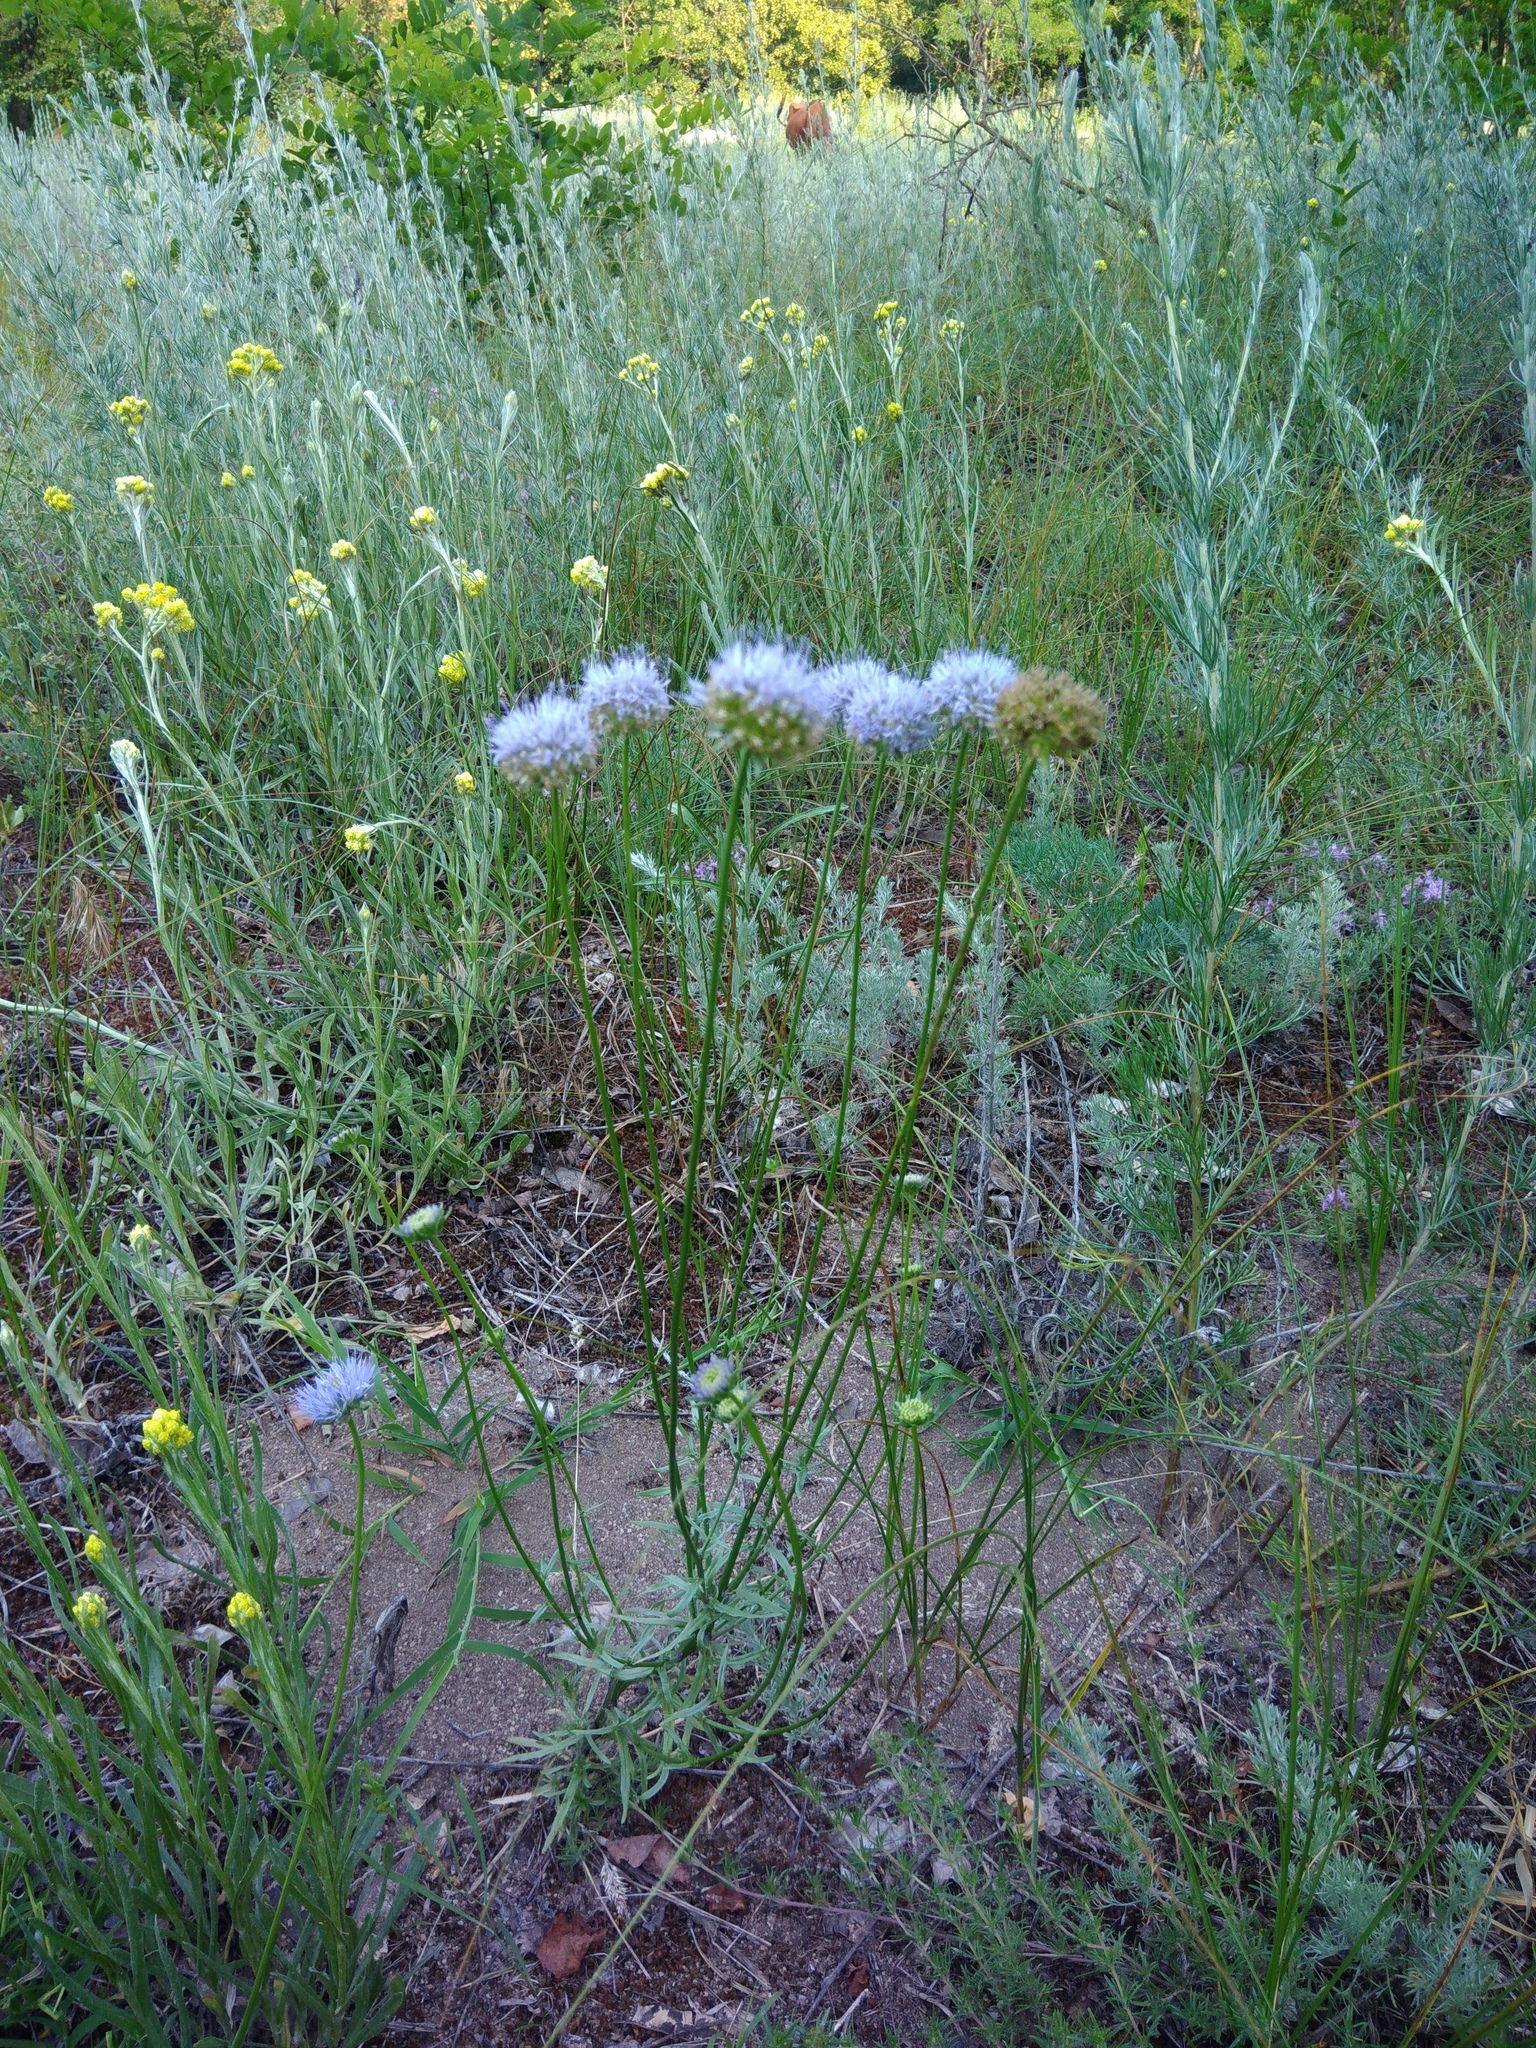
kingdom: Plantae
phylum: Tracheophyta
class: Magnoliopsida
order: Asterales
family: Campanulaceae
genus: Jasione
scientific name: Jasione montana
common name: Sheep's-bit
